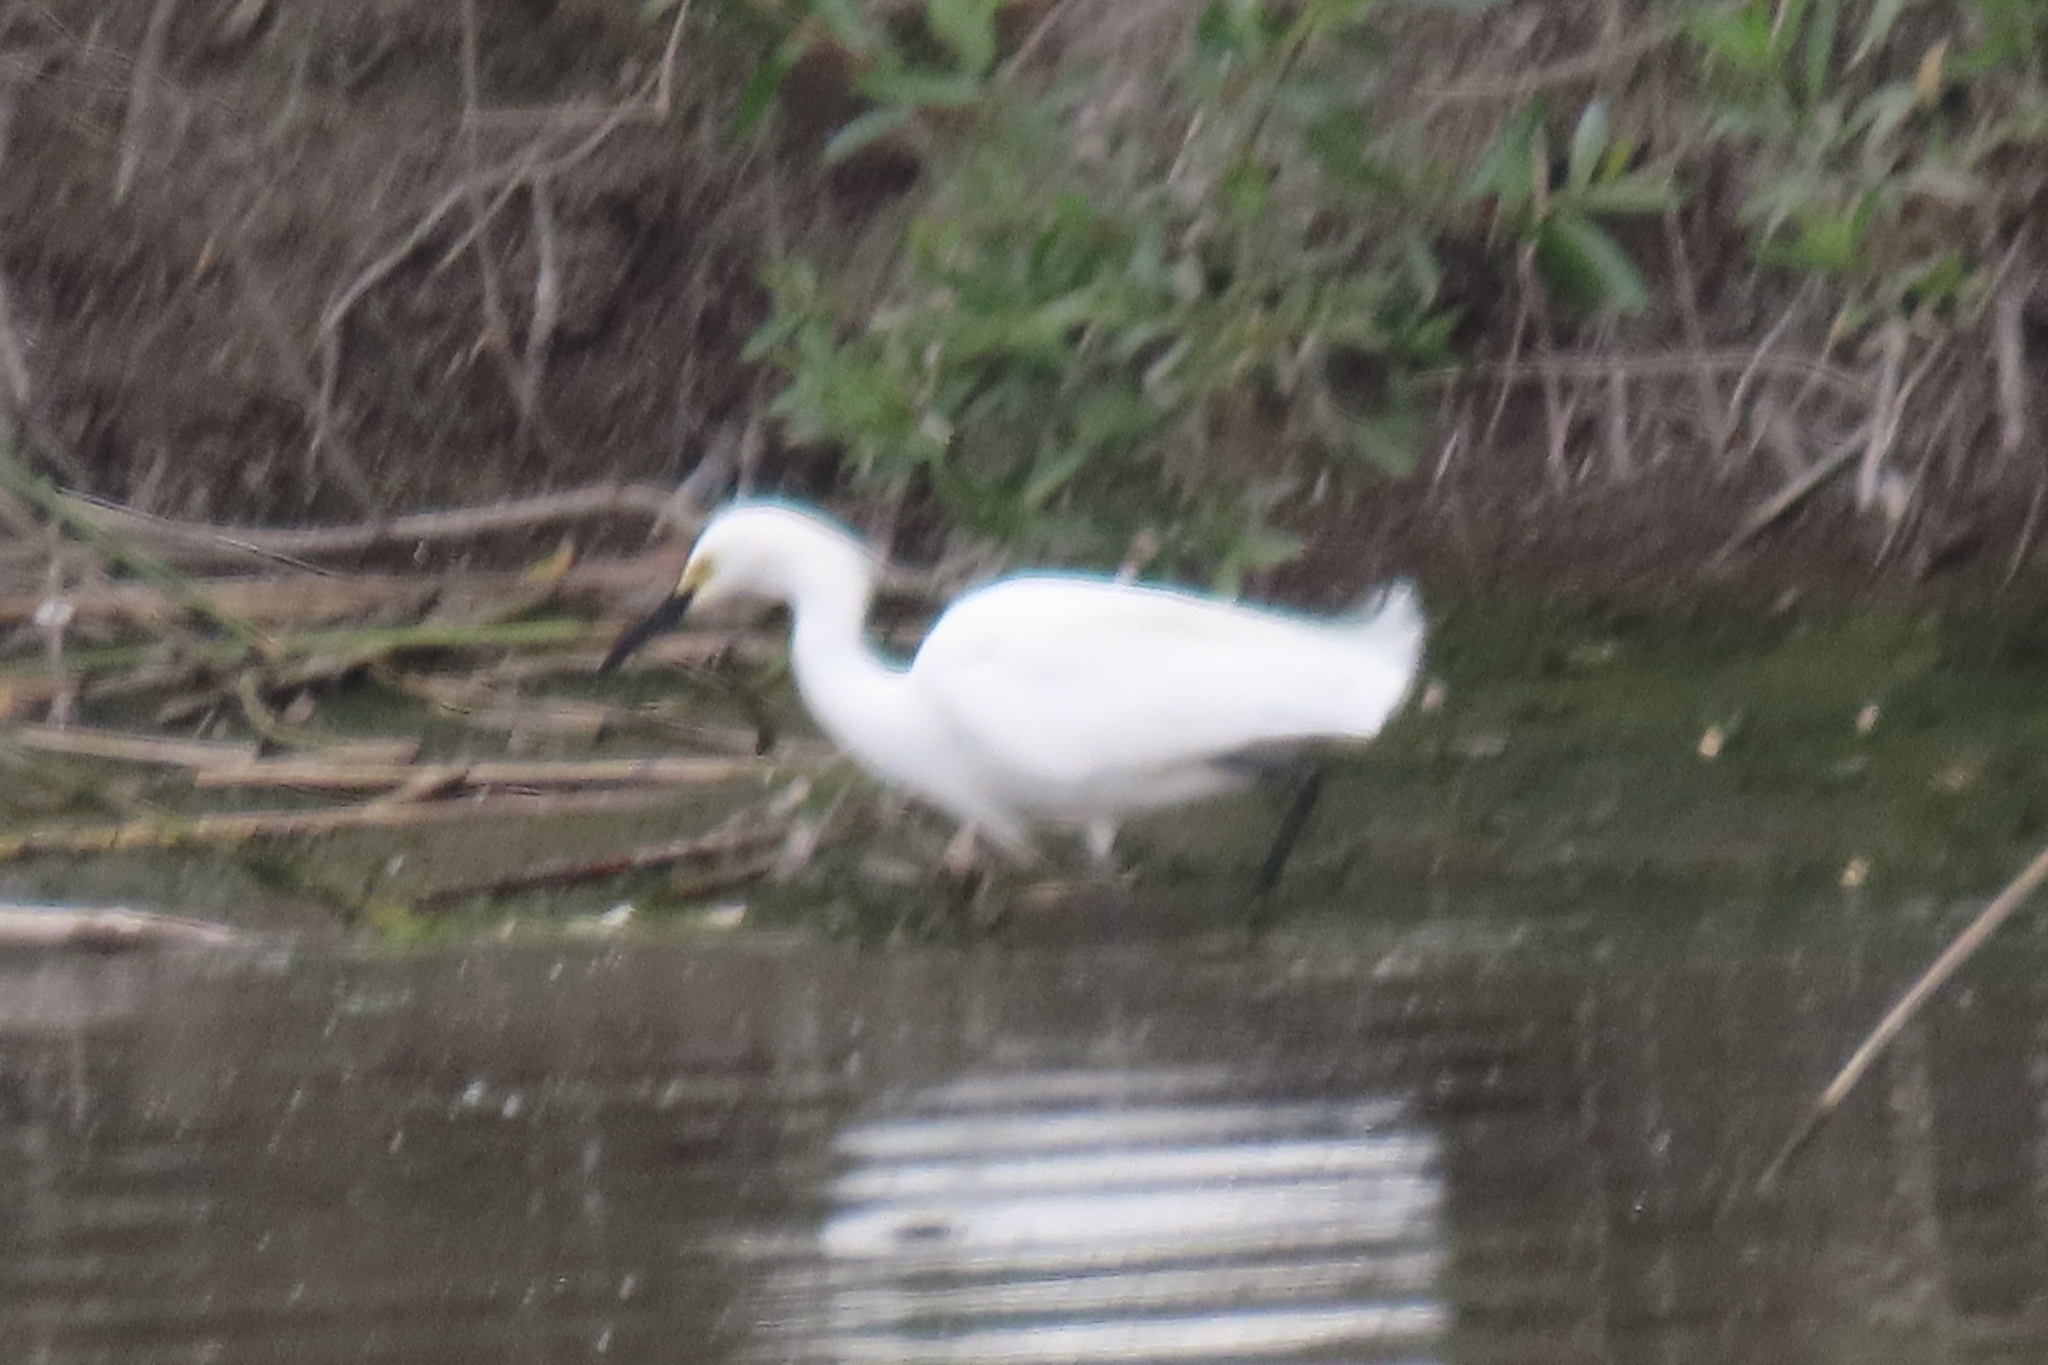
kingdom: Animalia
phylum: Chordata
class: Aves
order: Pelecaniformes
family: Ardeidae
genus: Egretta
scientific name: Egretta thula
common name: Snowy egret
